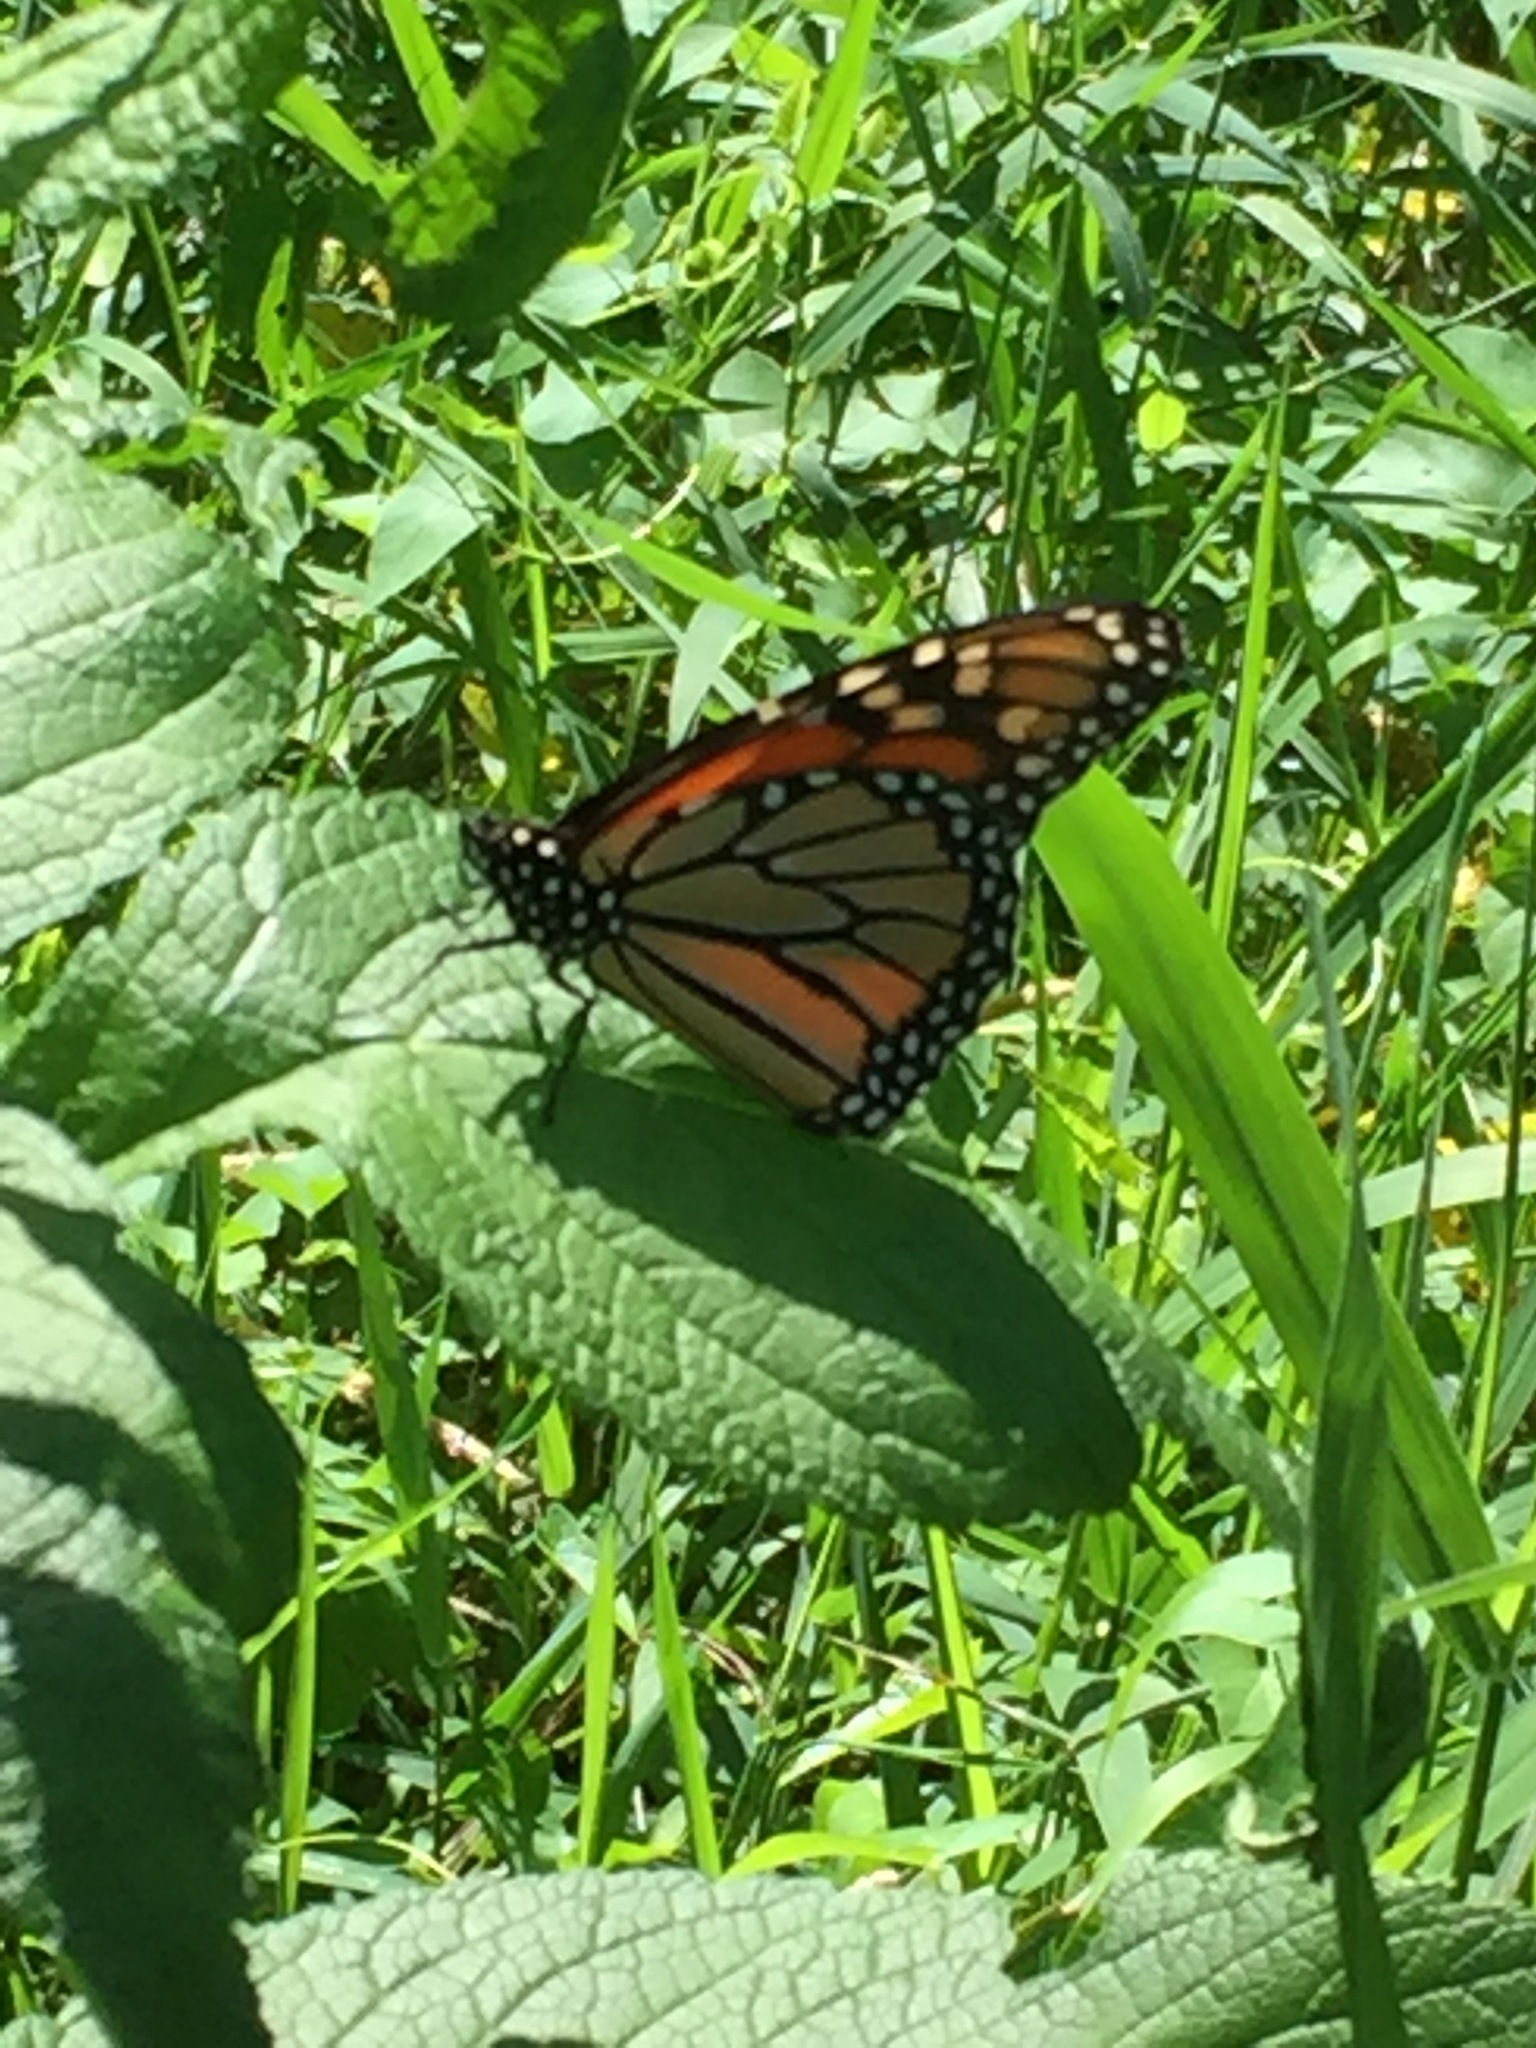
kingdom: Animalia
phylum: Arthropoda
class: Insecta
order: Lepidoptera
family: Nymphalidae
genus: Danaus
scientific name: Danaus plexippus
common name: Monarch
